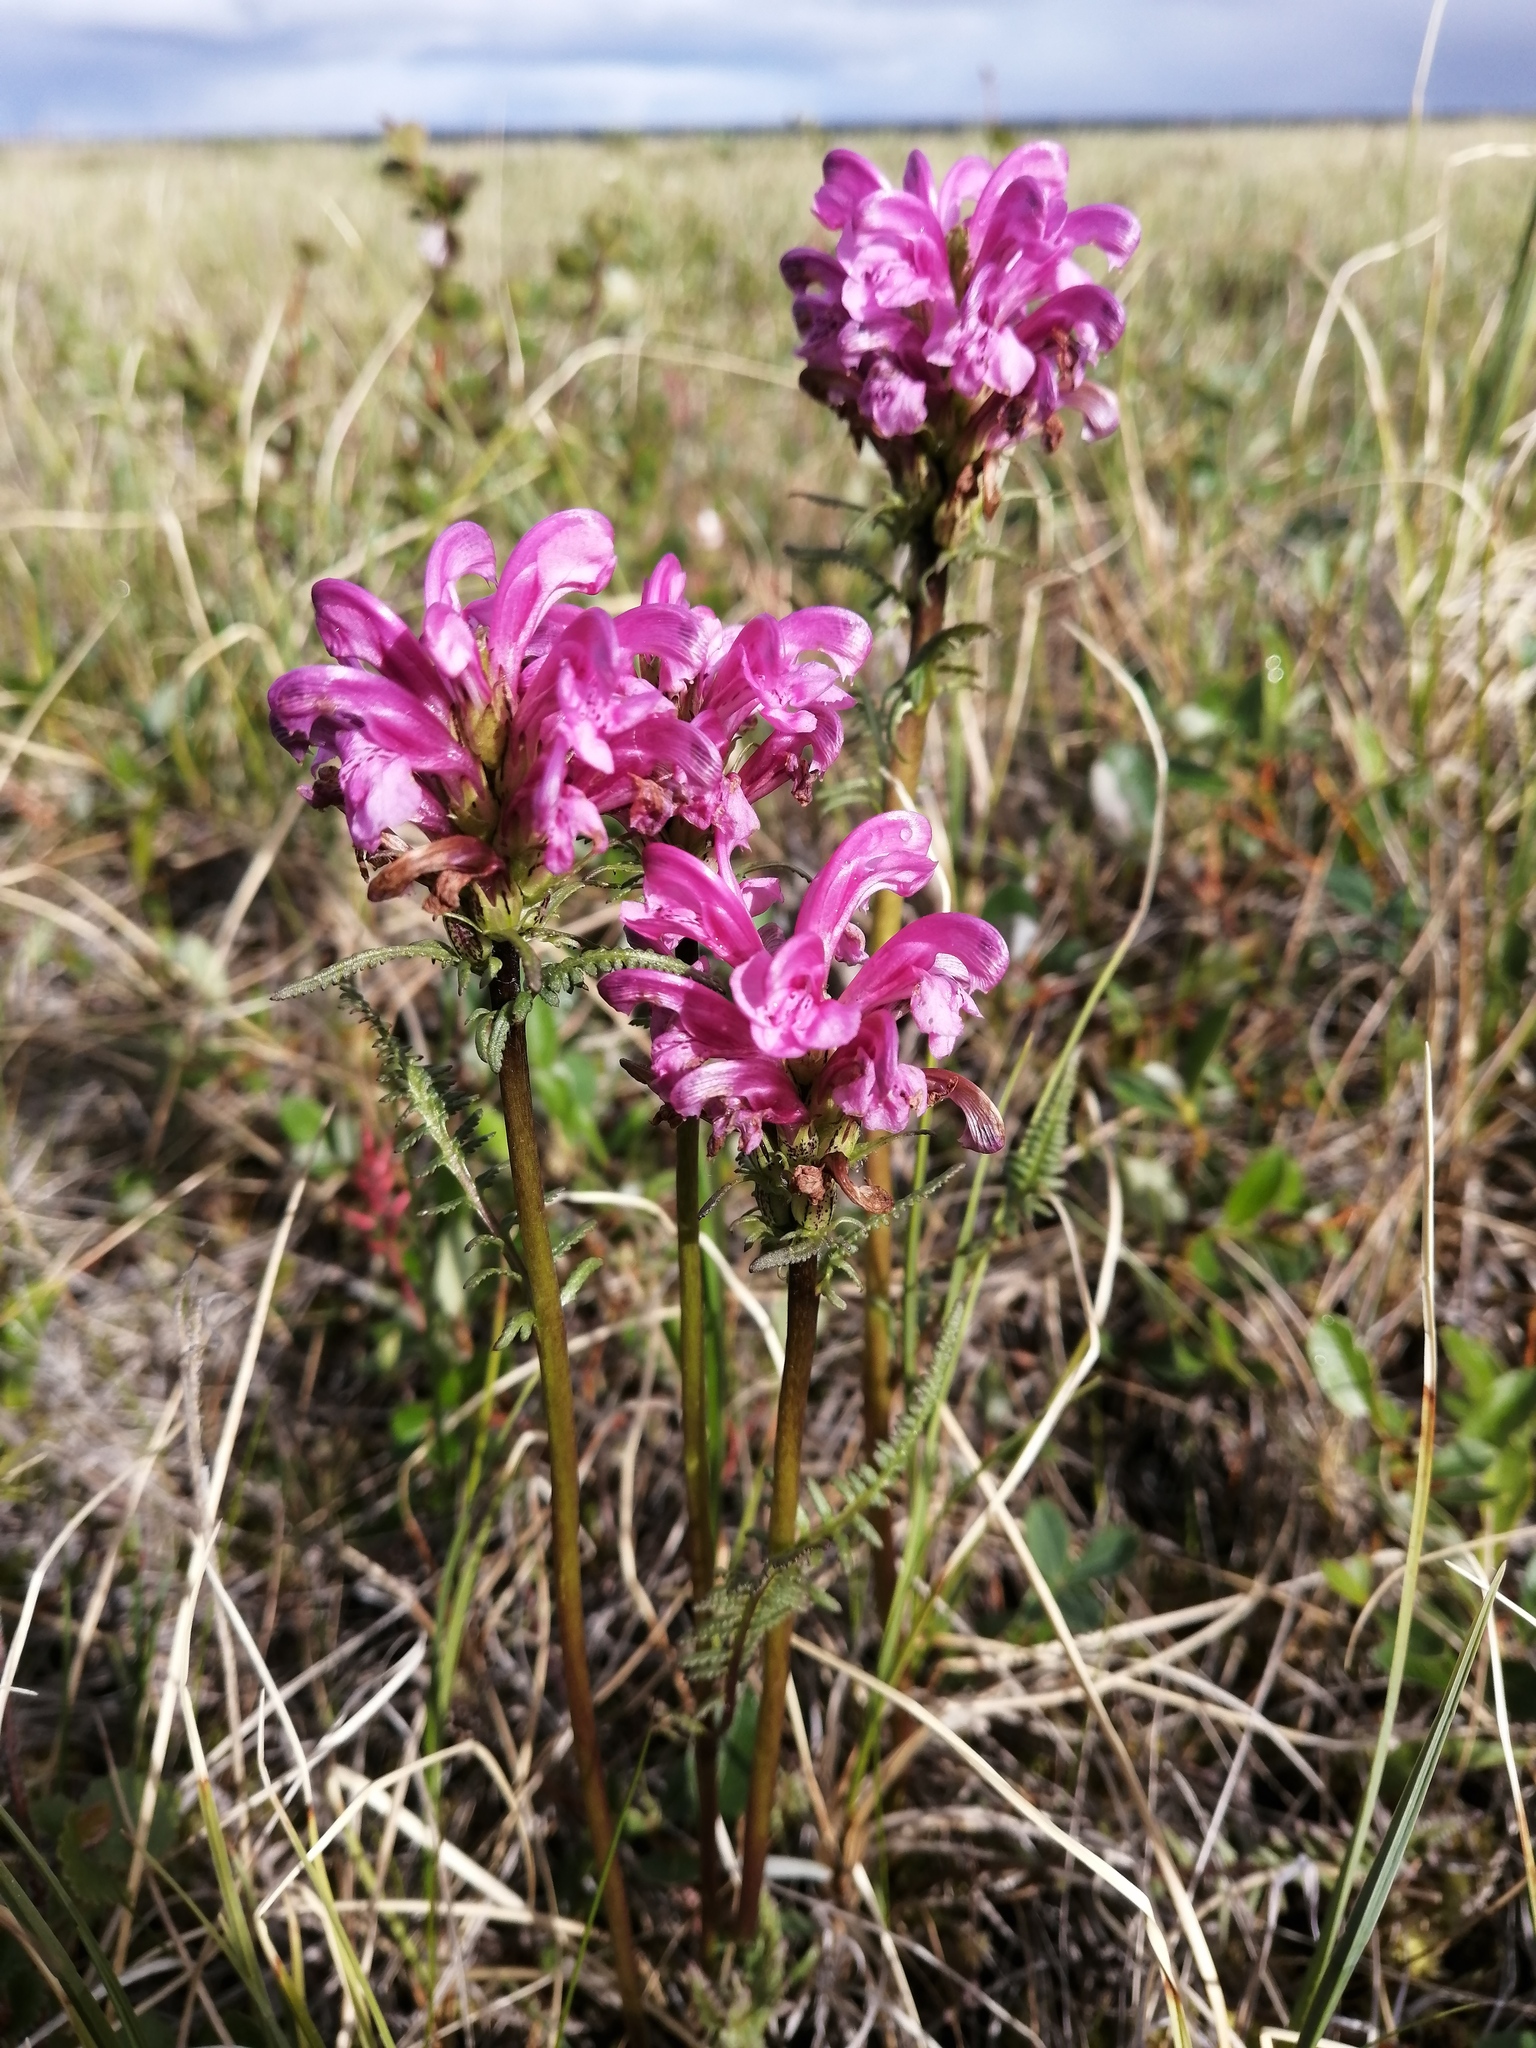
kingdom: Plantae
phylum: Tracheophyta
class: Magnoliopsida
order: Lamiales
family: Orobanchaceae
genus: Pedicularis
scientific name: Pedicularis interior
